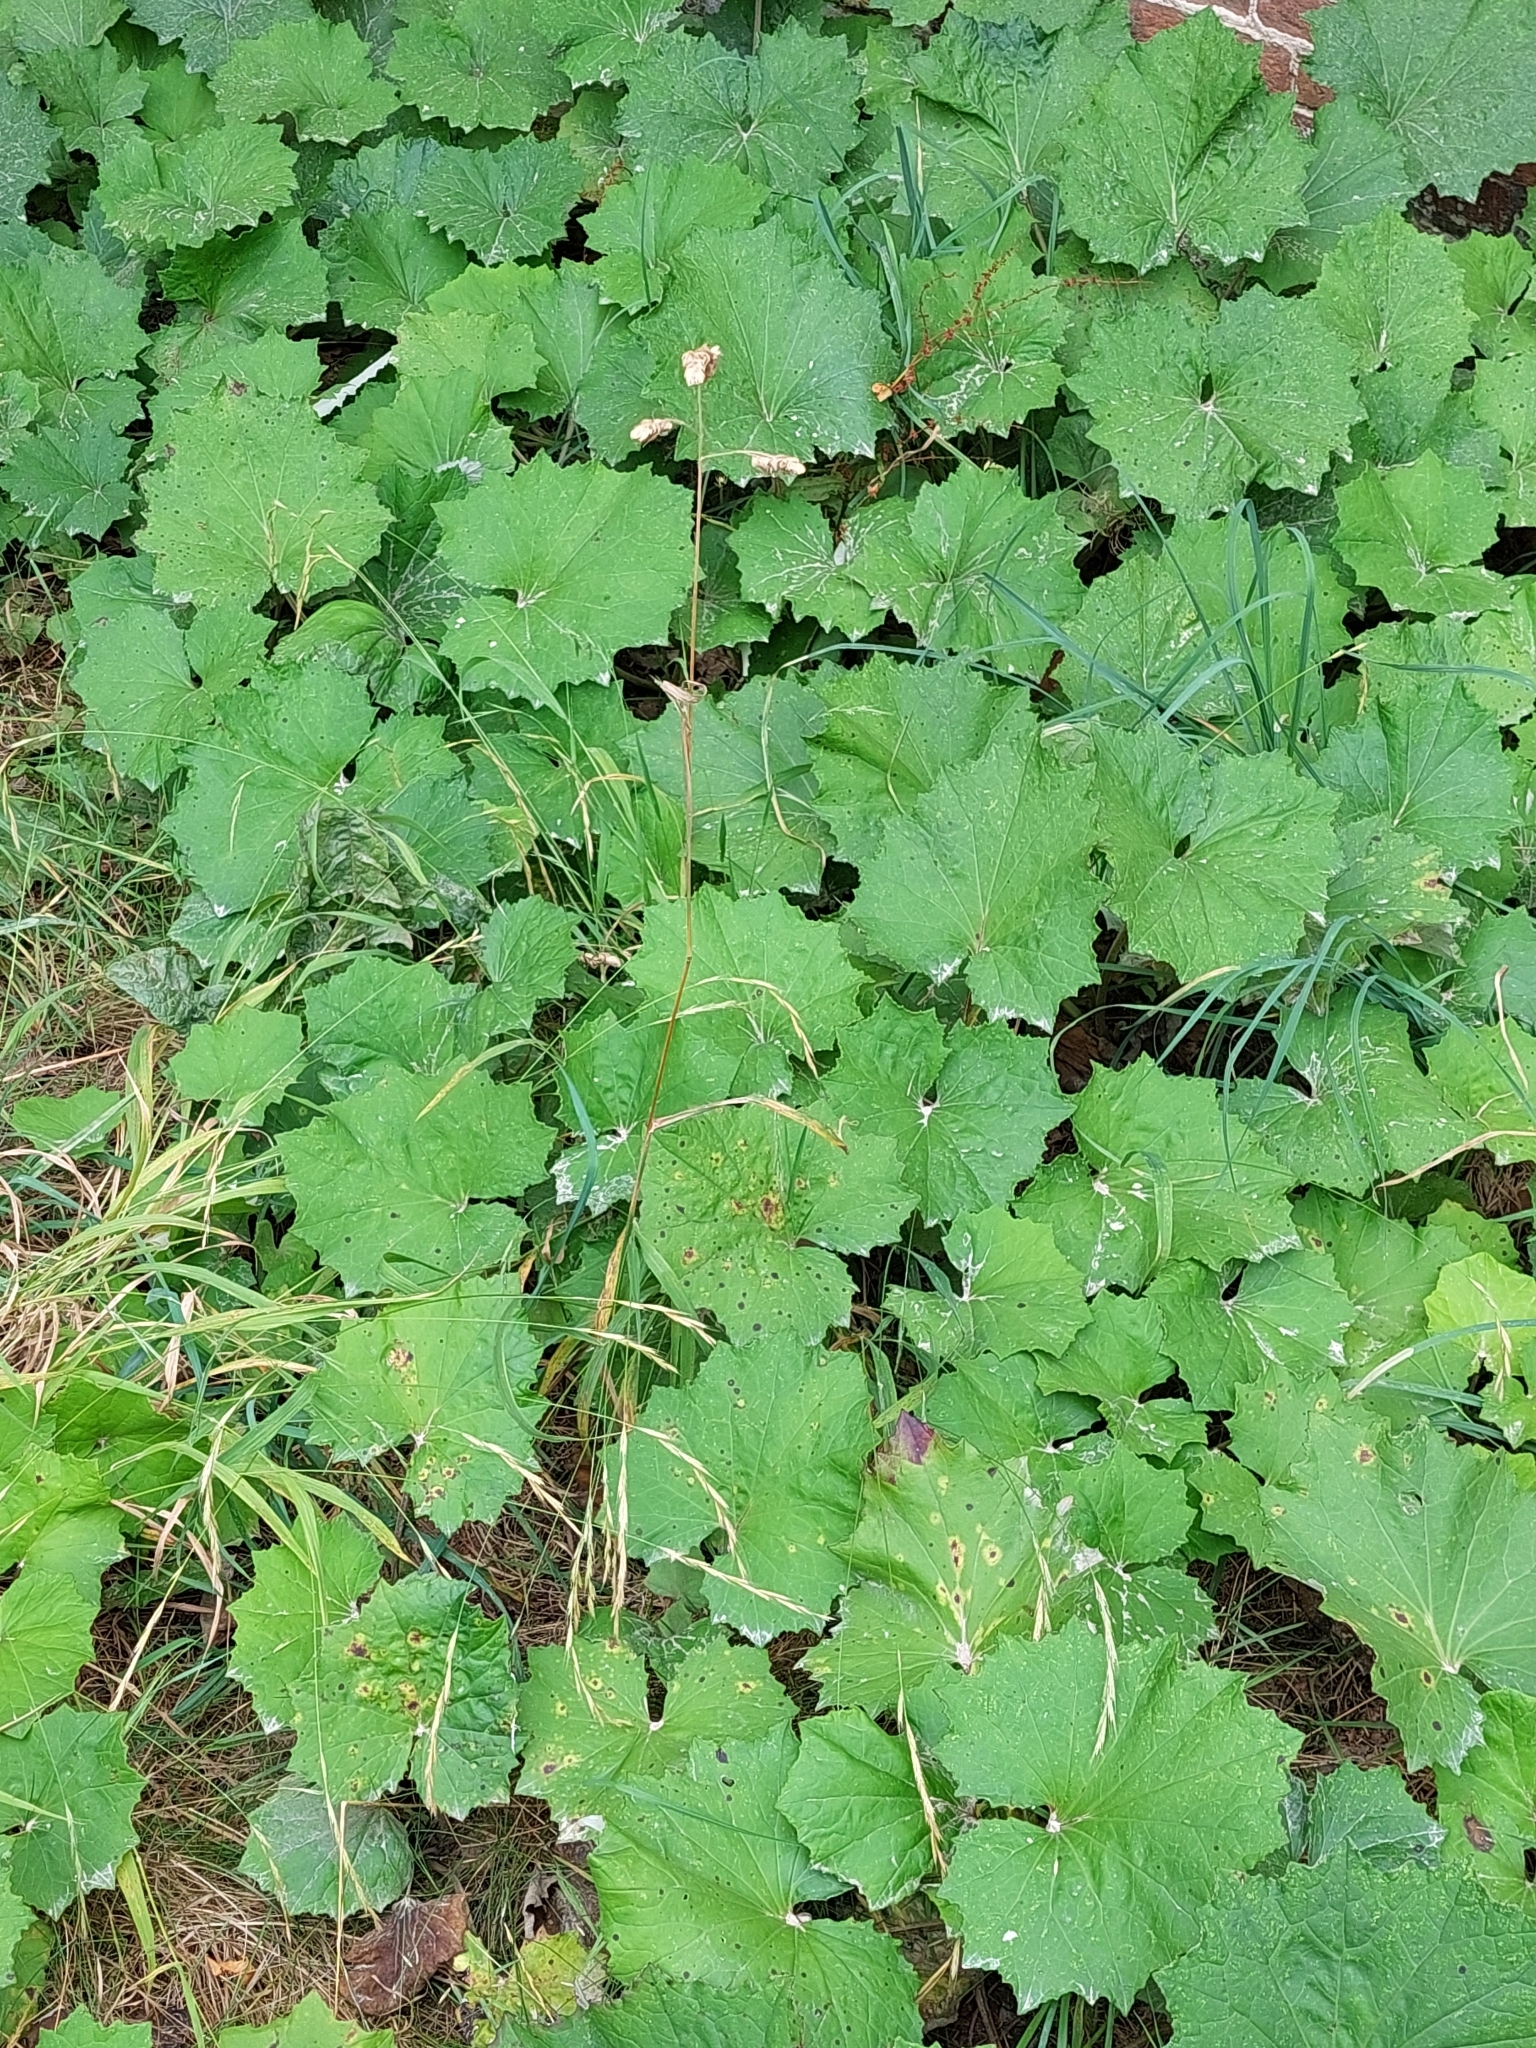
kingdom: Plantae
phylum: Tracheophyta
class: Magnoliopsida
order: Asterales
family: Asteraceae
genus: Tussilago
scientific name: Tussilago farfara
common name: Coltsfoot
